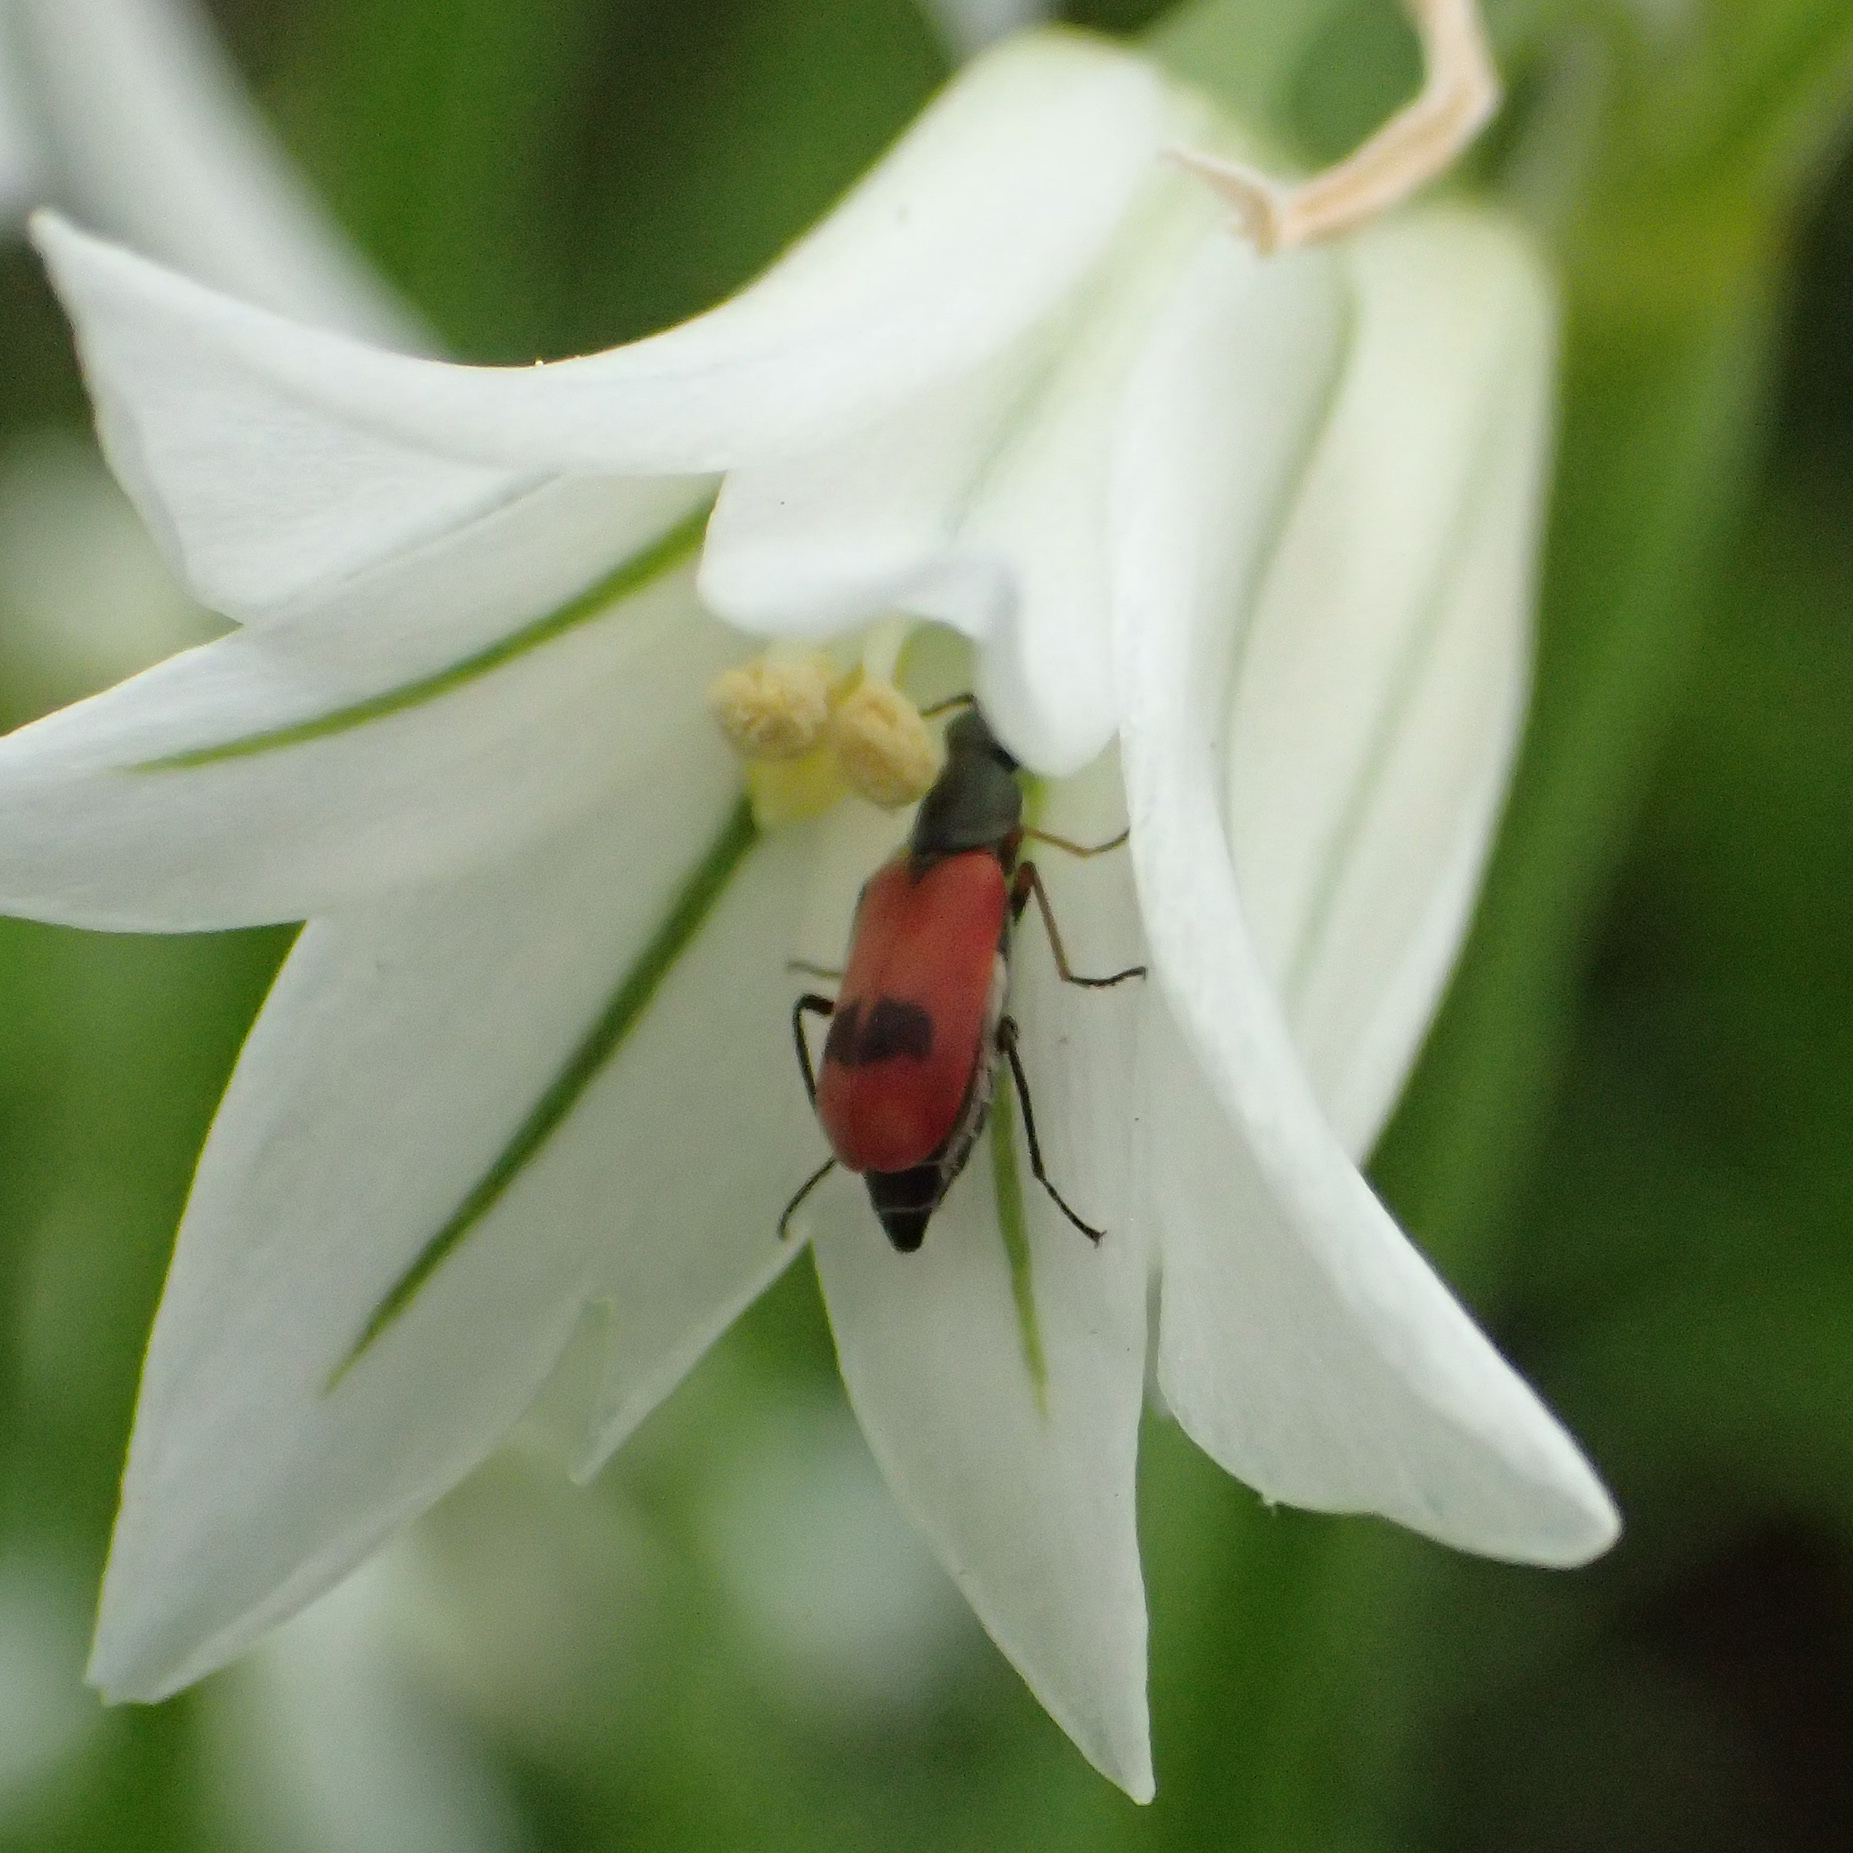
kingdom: Animalia
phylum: Arthropoda
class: Insecta
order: Coleoptera
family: Melyridae
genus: Anthocomus
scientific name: Anthocomus equestris
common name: Black-banded soft-winged flower beetle
